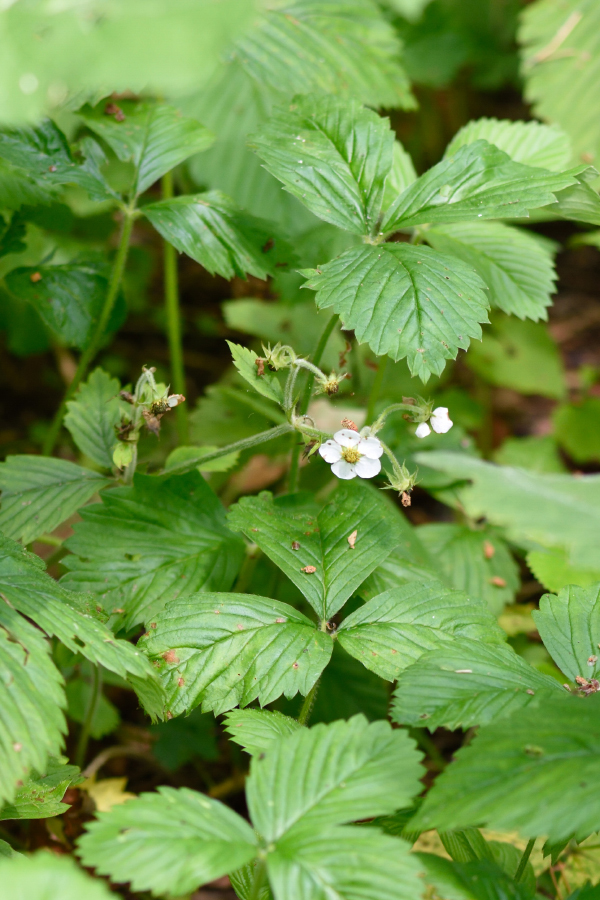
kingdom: Plantae
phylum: Tracheophyta
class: Magnoliopsida
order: Rosales
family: Rosaceae
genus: Fragaria
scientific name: Fragaria moschata
